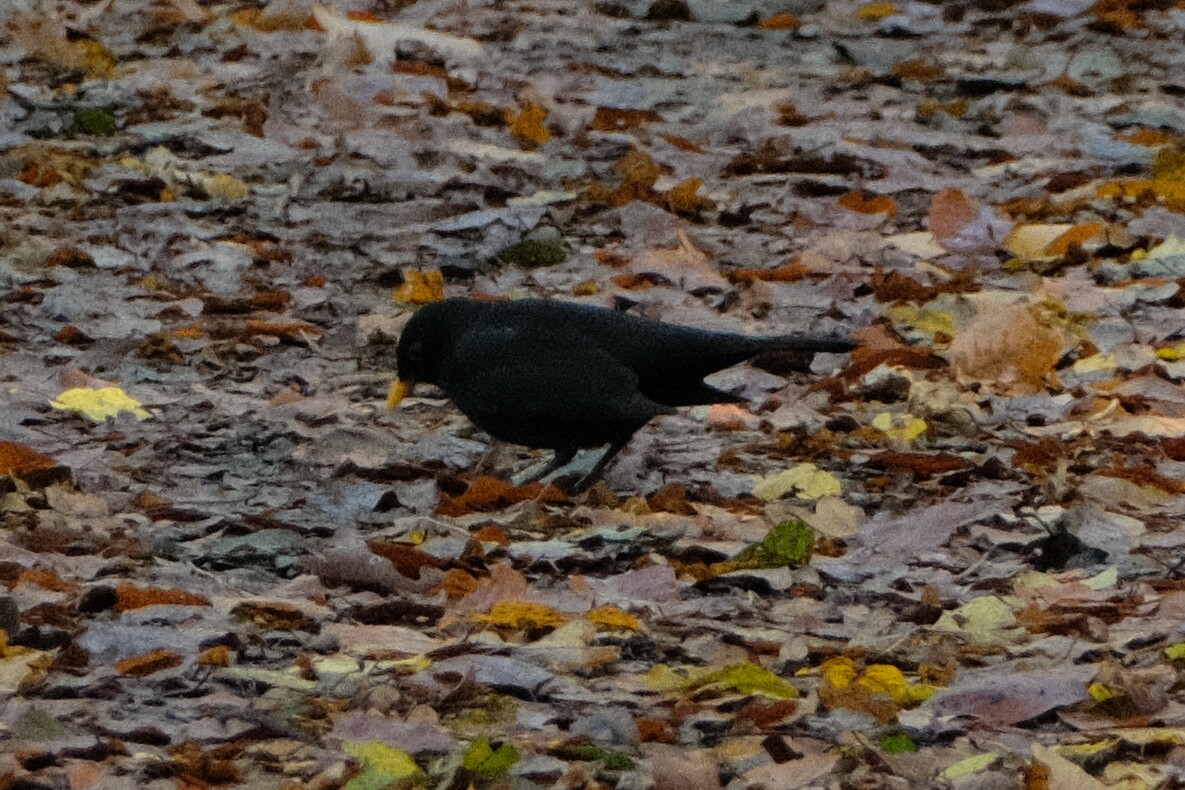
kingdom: Animalia
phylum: Chordata
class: Aves
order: Passeriformes
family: Turdidae
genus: Turdus
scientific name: Turdus merula
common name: Common blackbird
